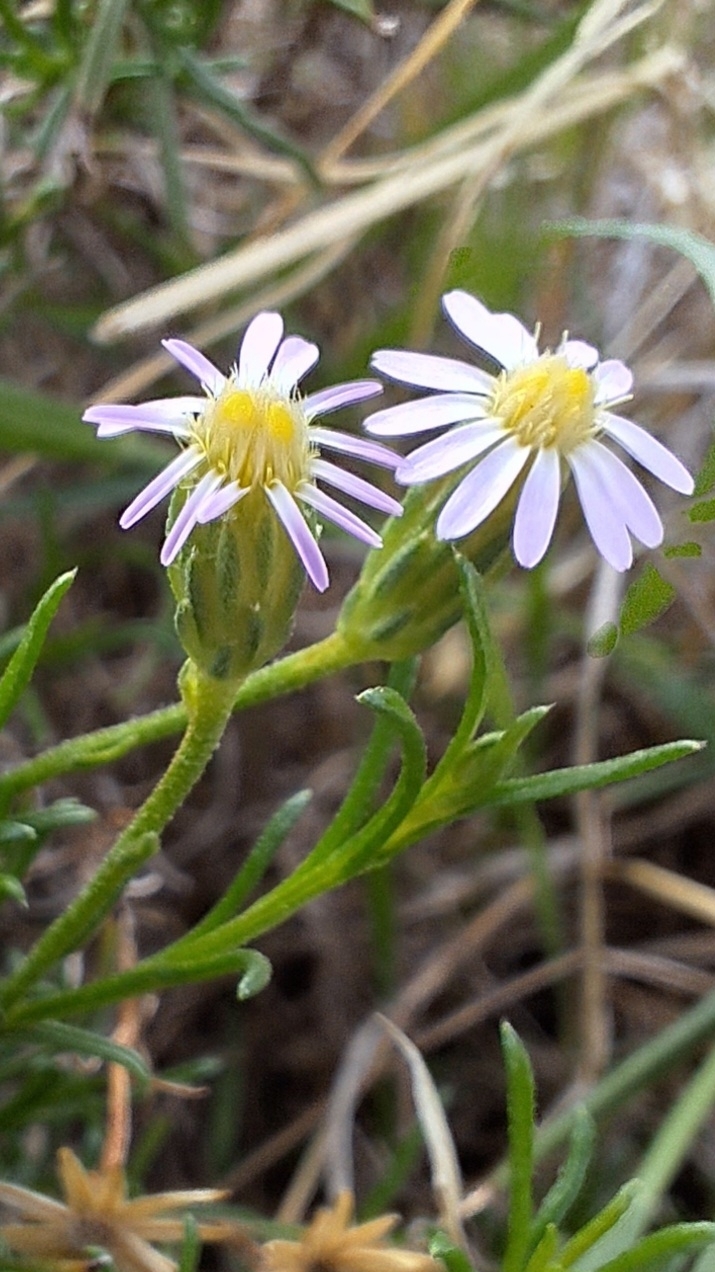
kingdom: Plantae
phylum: Tracheophyta
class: Magnoliopsida
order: Asterales
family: Asteraceae
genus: Vittadinia
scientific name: Vittadinia blackii
